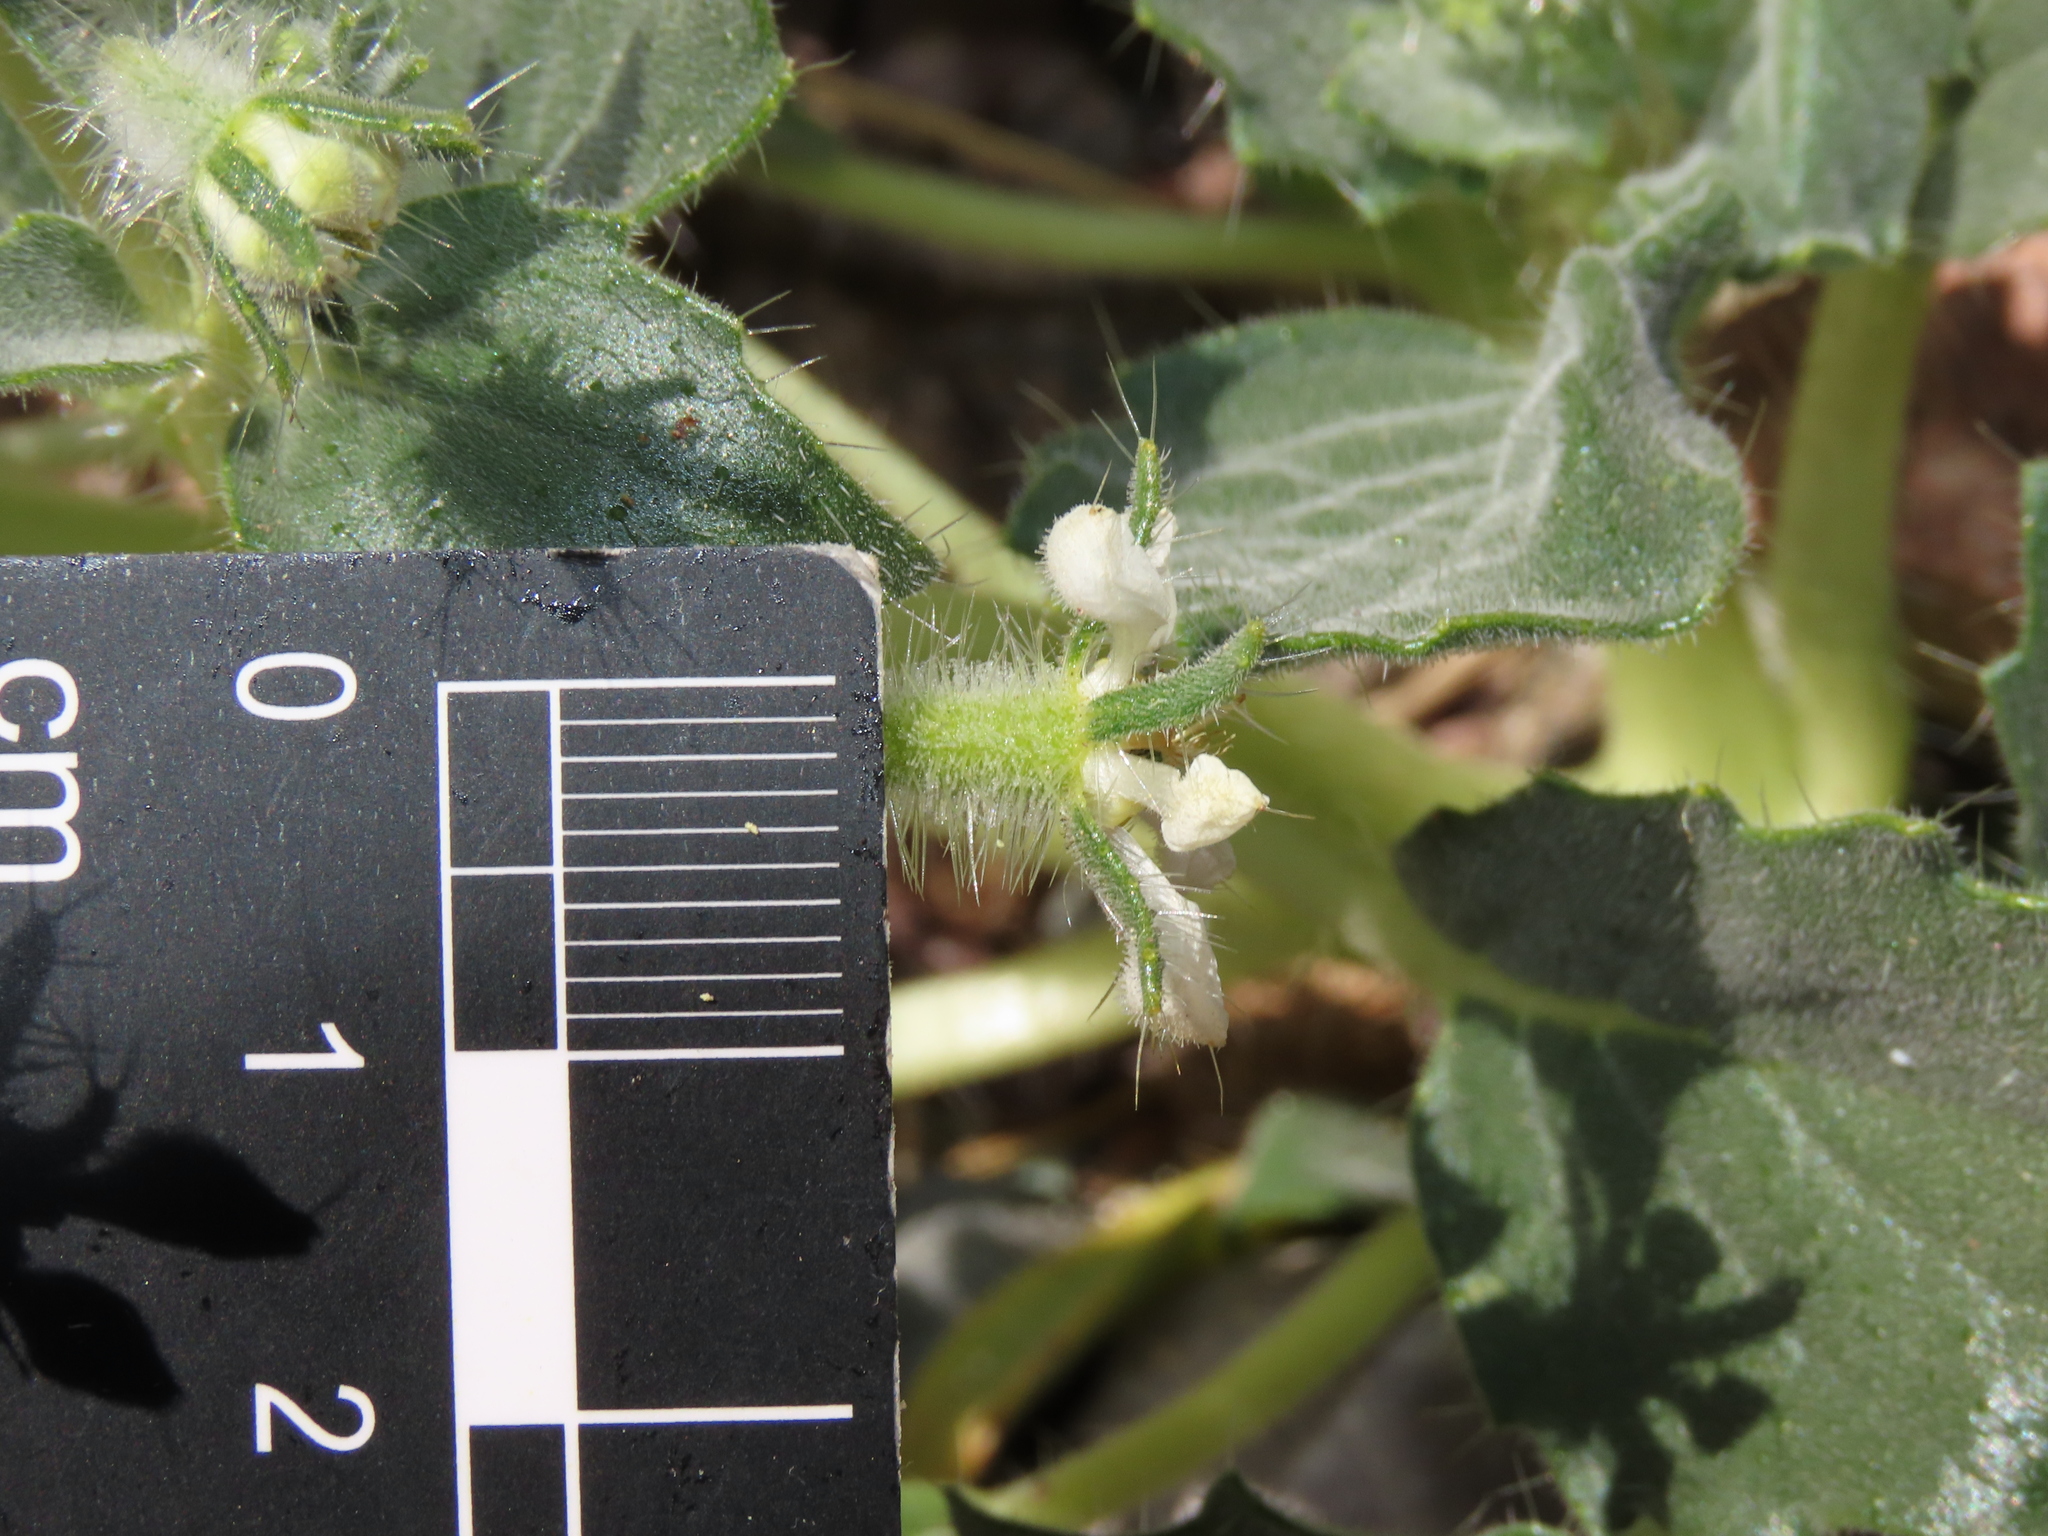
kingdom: Plantae
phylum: Tracheophyta
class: Magnoliopsida
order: Cornales
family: Loasaceae
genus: Presliophytum
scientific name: Presliophytum malesherbioides
